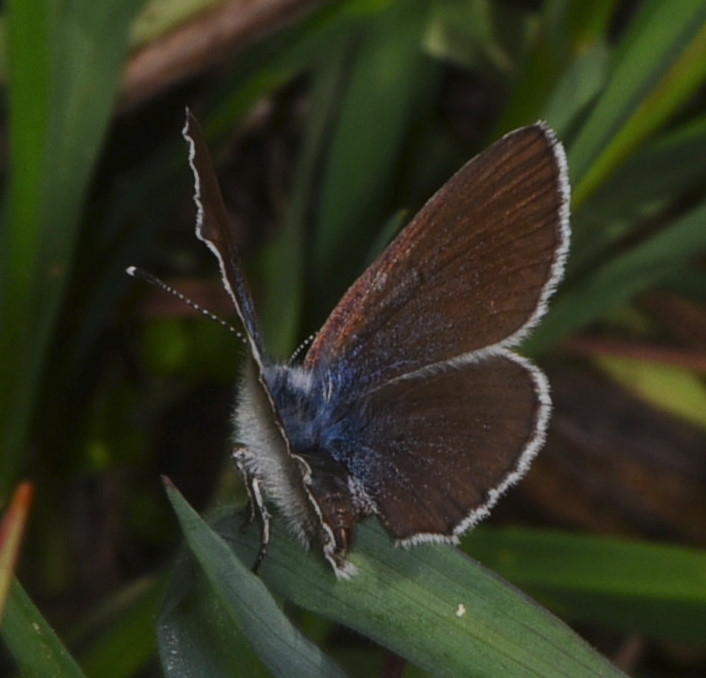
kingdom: Animalia
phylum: Arthropoda
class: Insecta
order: Lepidoptera
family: Lycaenidae
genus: Glaucopsyche
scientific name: Glaucopsyche lygdamus
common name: Silvery blue
